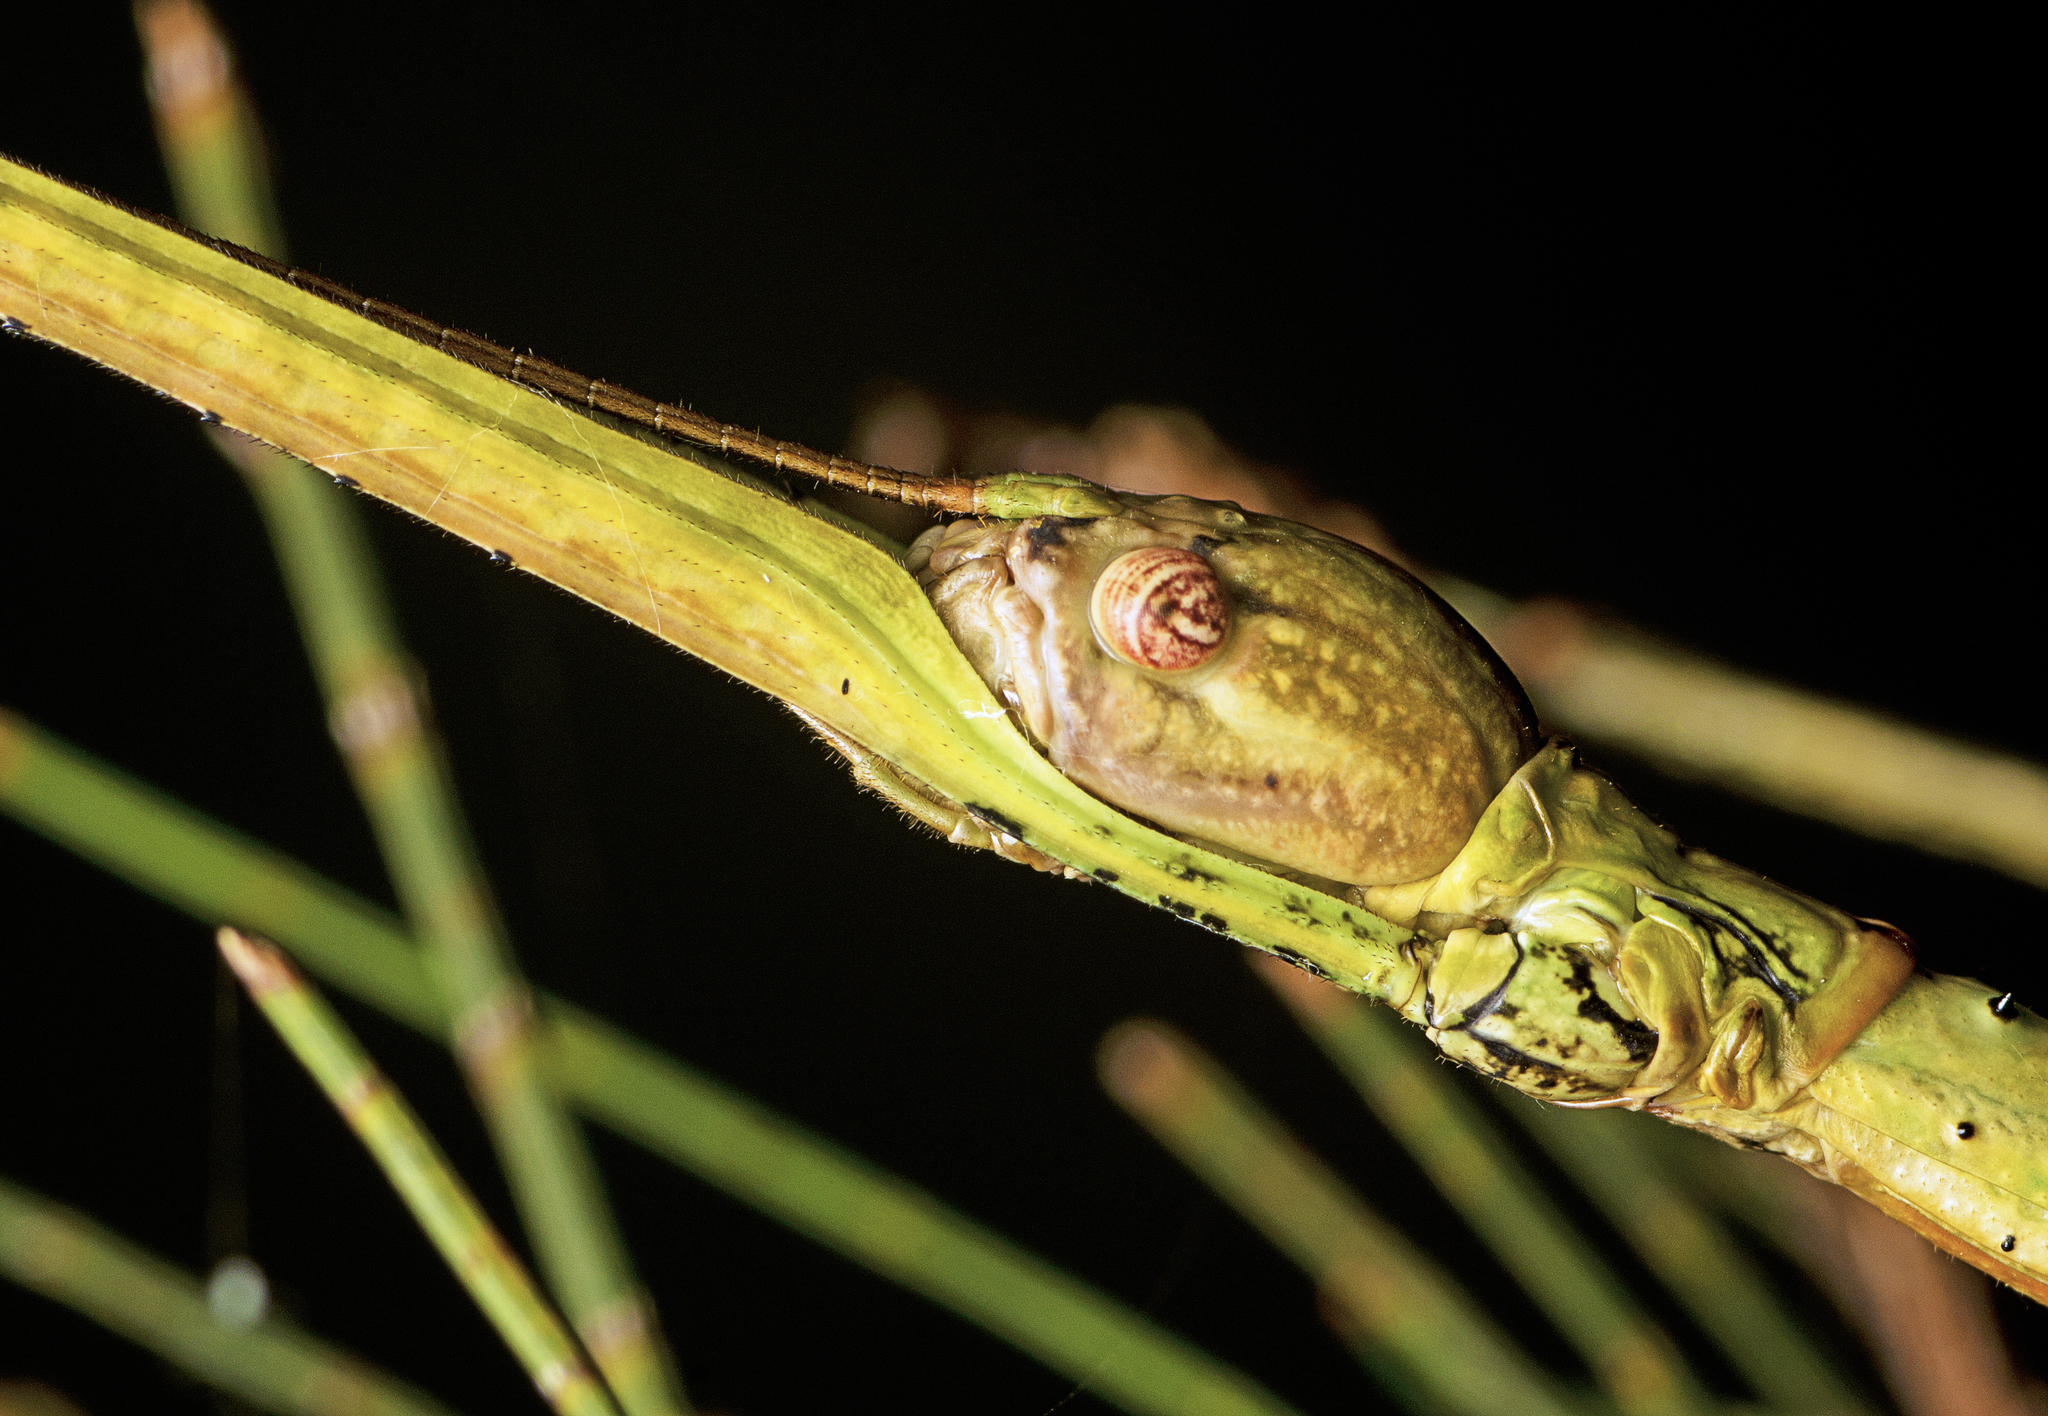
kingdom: Animalia
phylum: Arthropoda
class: Insecta
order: Phasmida
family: Phasmatidae
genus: Anchiale
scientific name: Anchiale austrotessulata
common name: Tessellated stick-insect
